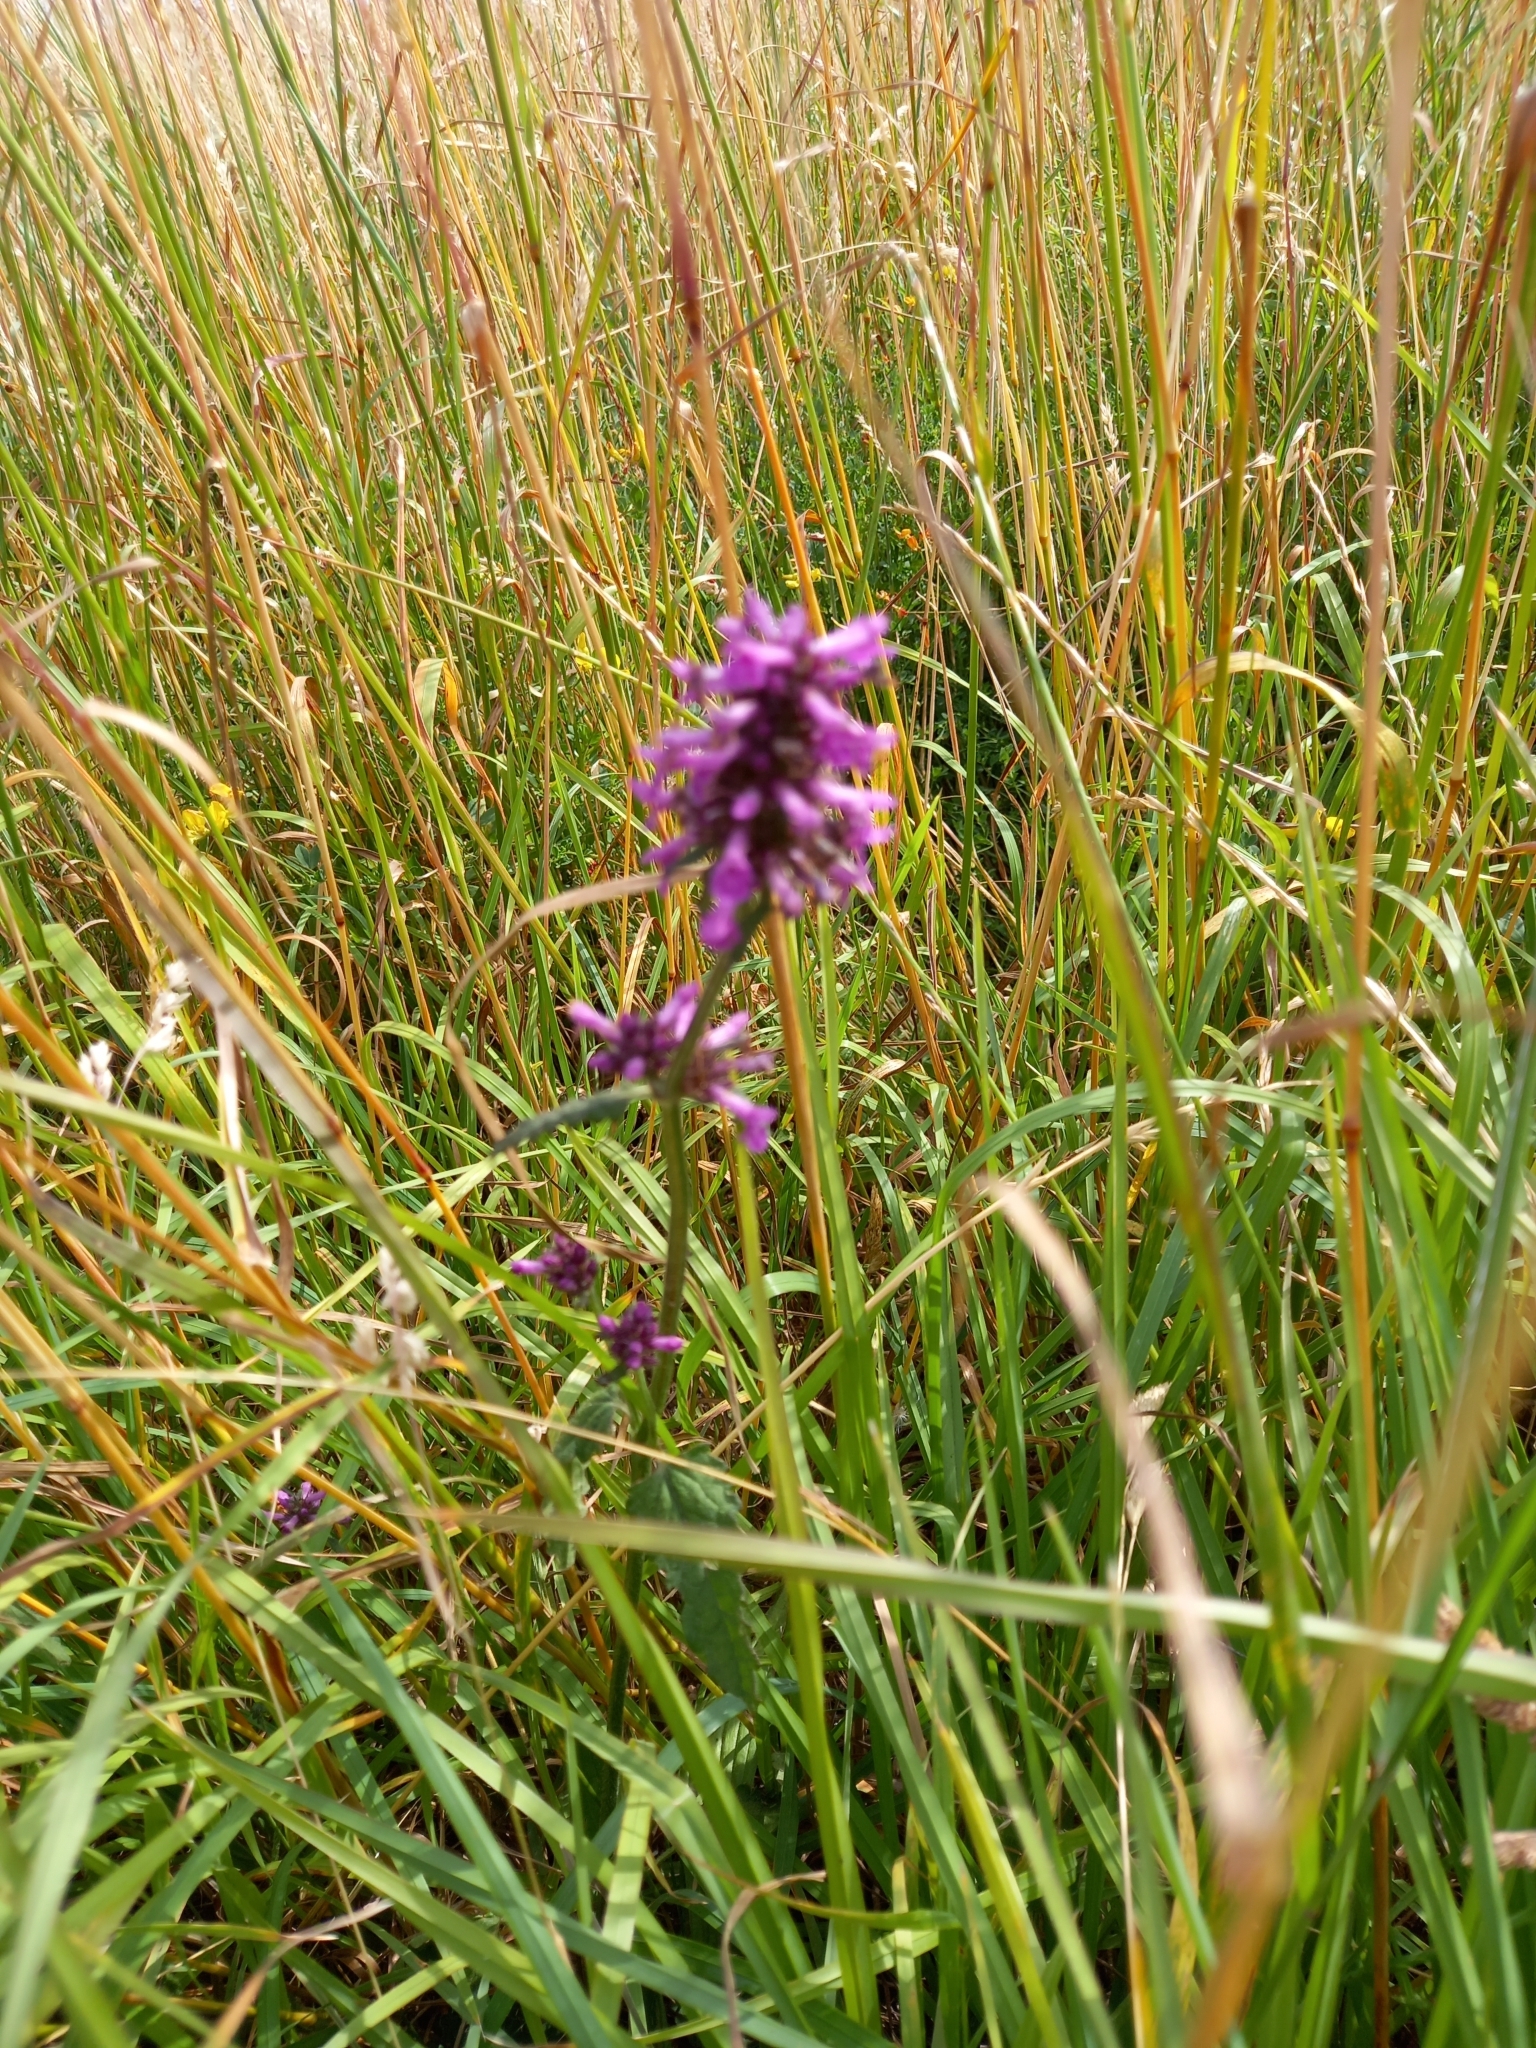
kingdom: Plantae
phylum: Tracheophyta
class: Magnoliopsida
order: Lamiales
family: Lamiaceae
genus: Betonica
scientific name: Betonica officinalis
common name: Bishop's-wort
